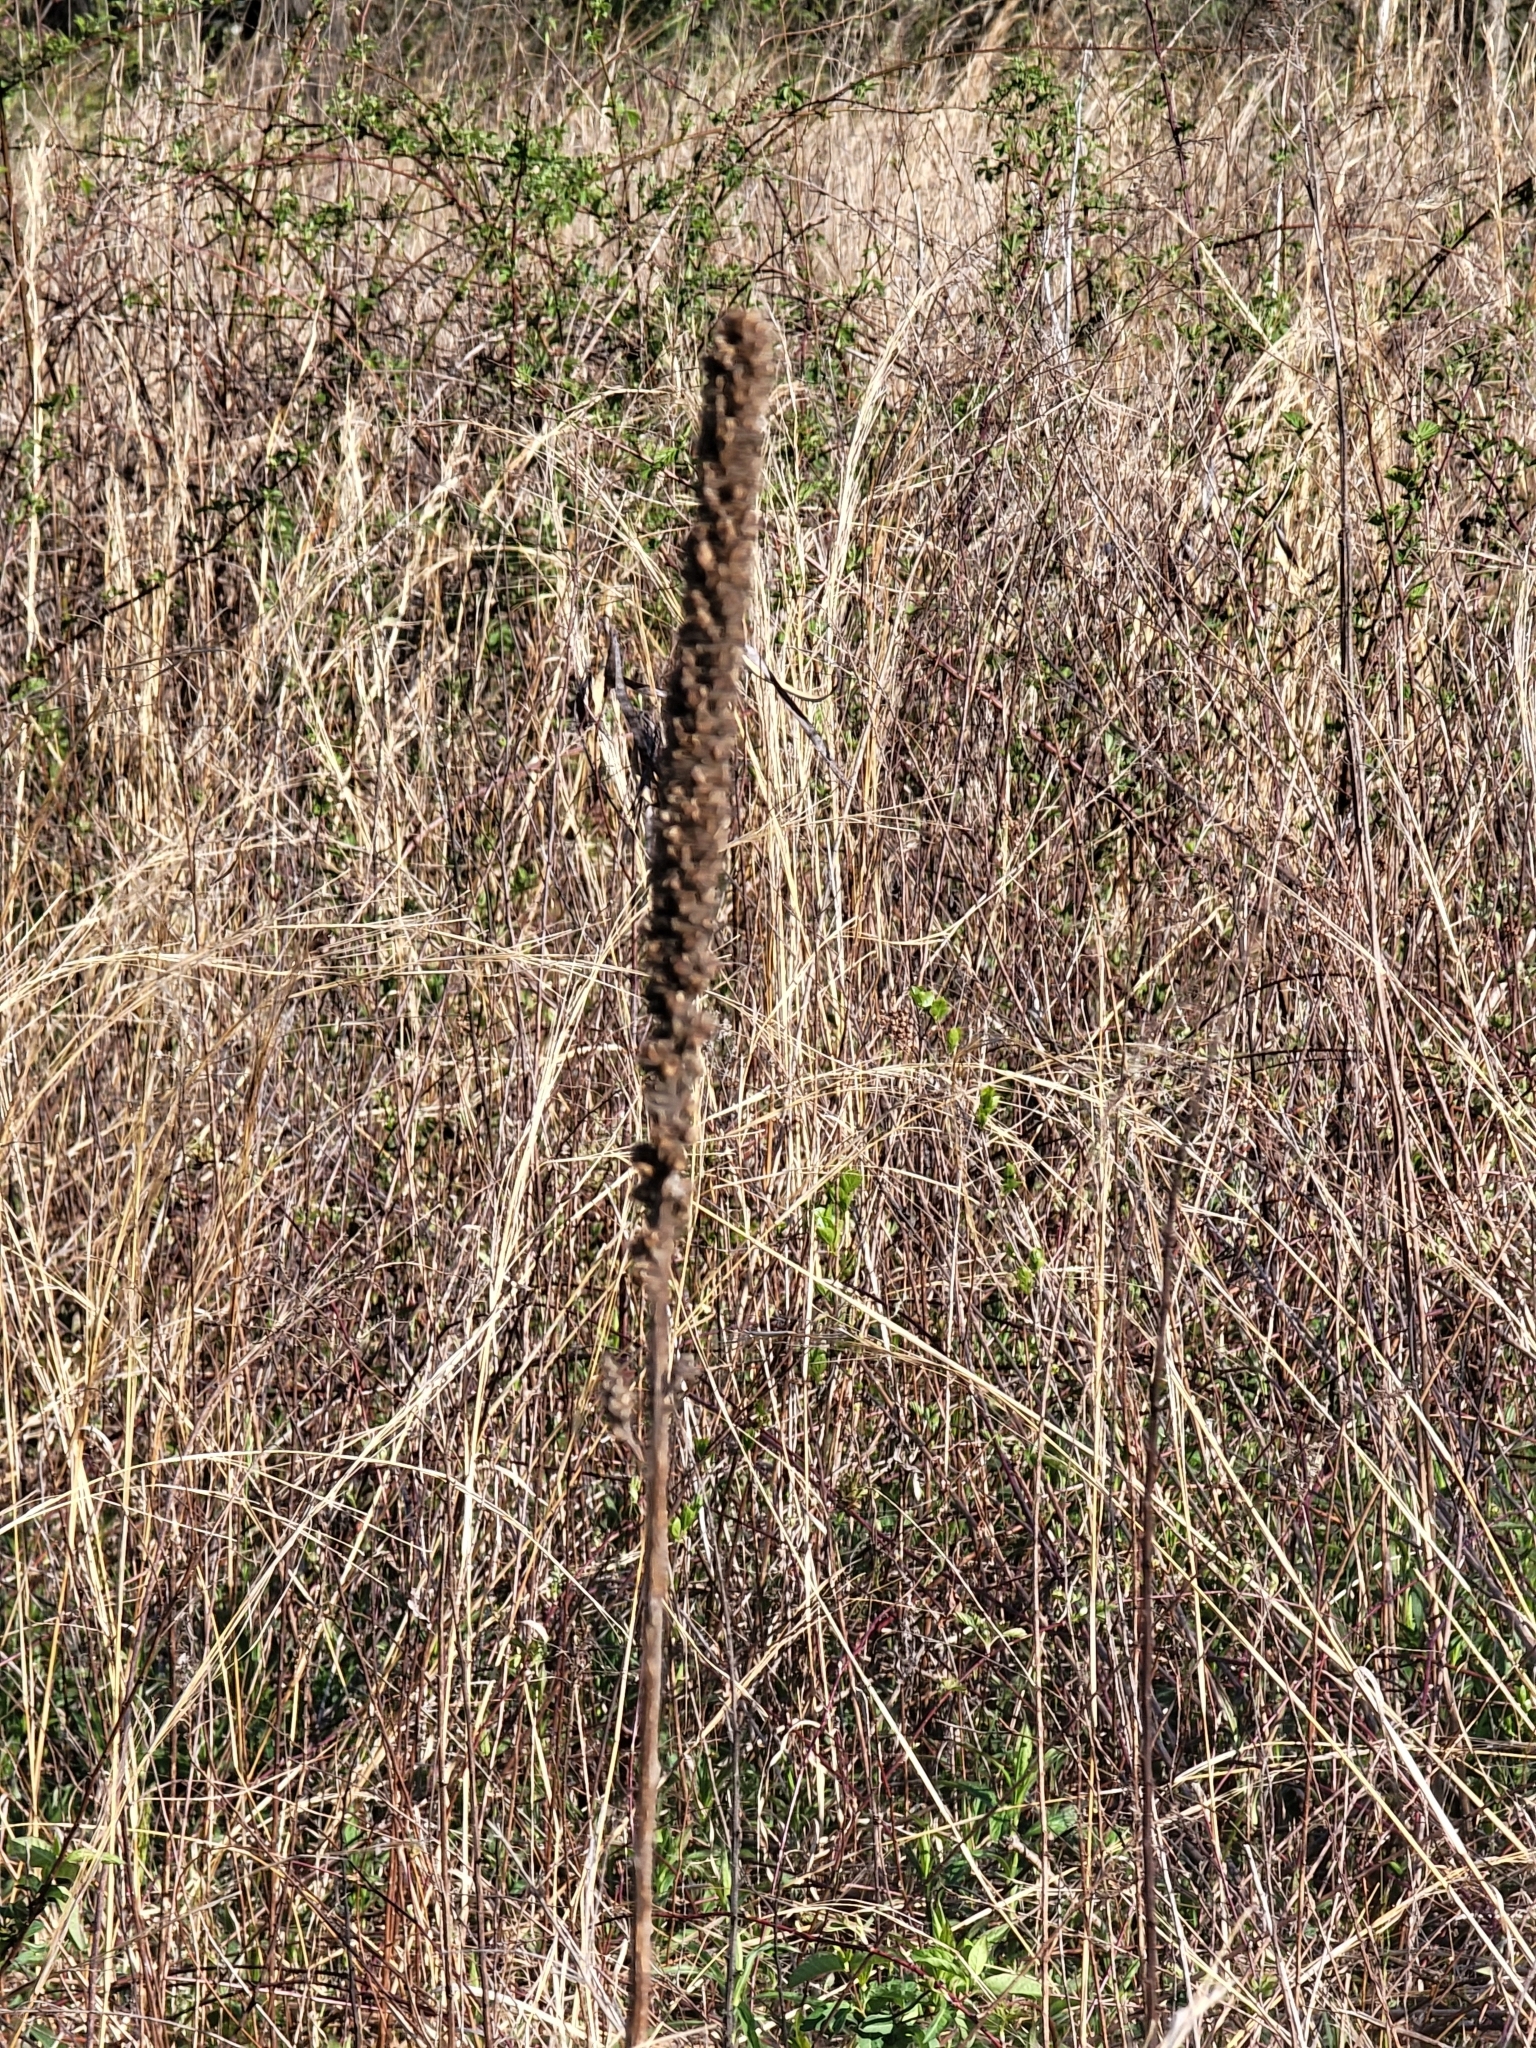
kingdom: Plantae
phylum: Tracheophyta
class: Magnoliopsida
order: Lamiales
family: Scrophulariaceae
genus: Verbascum
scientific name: Verbascum thapsus
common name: Common mullein
